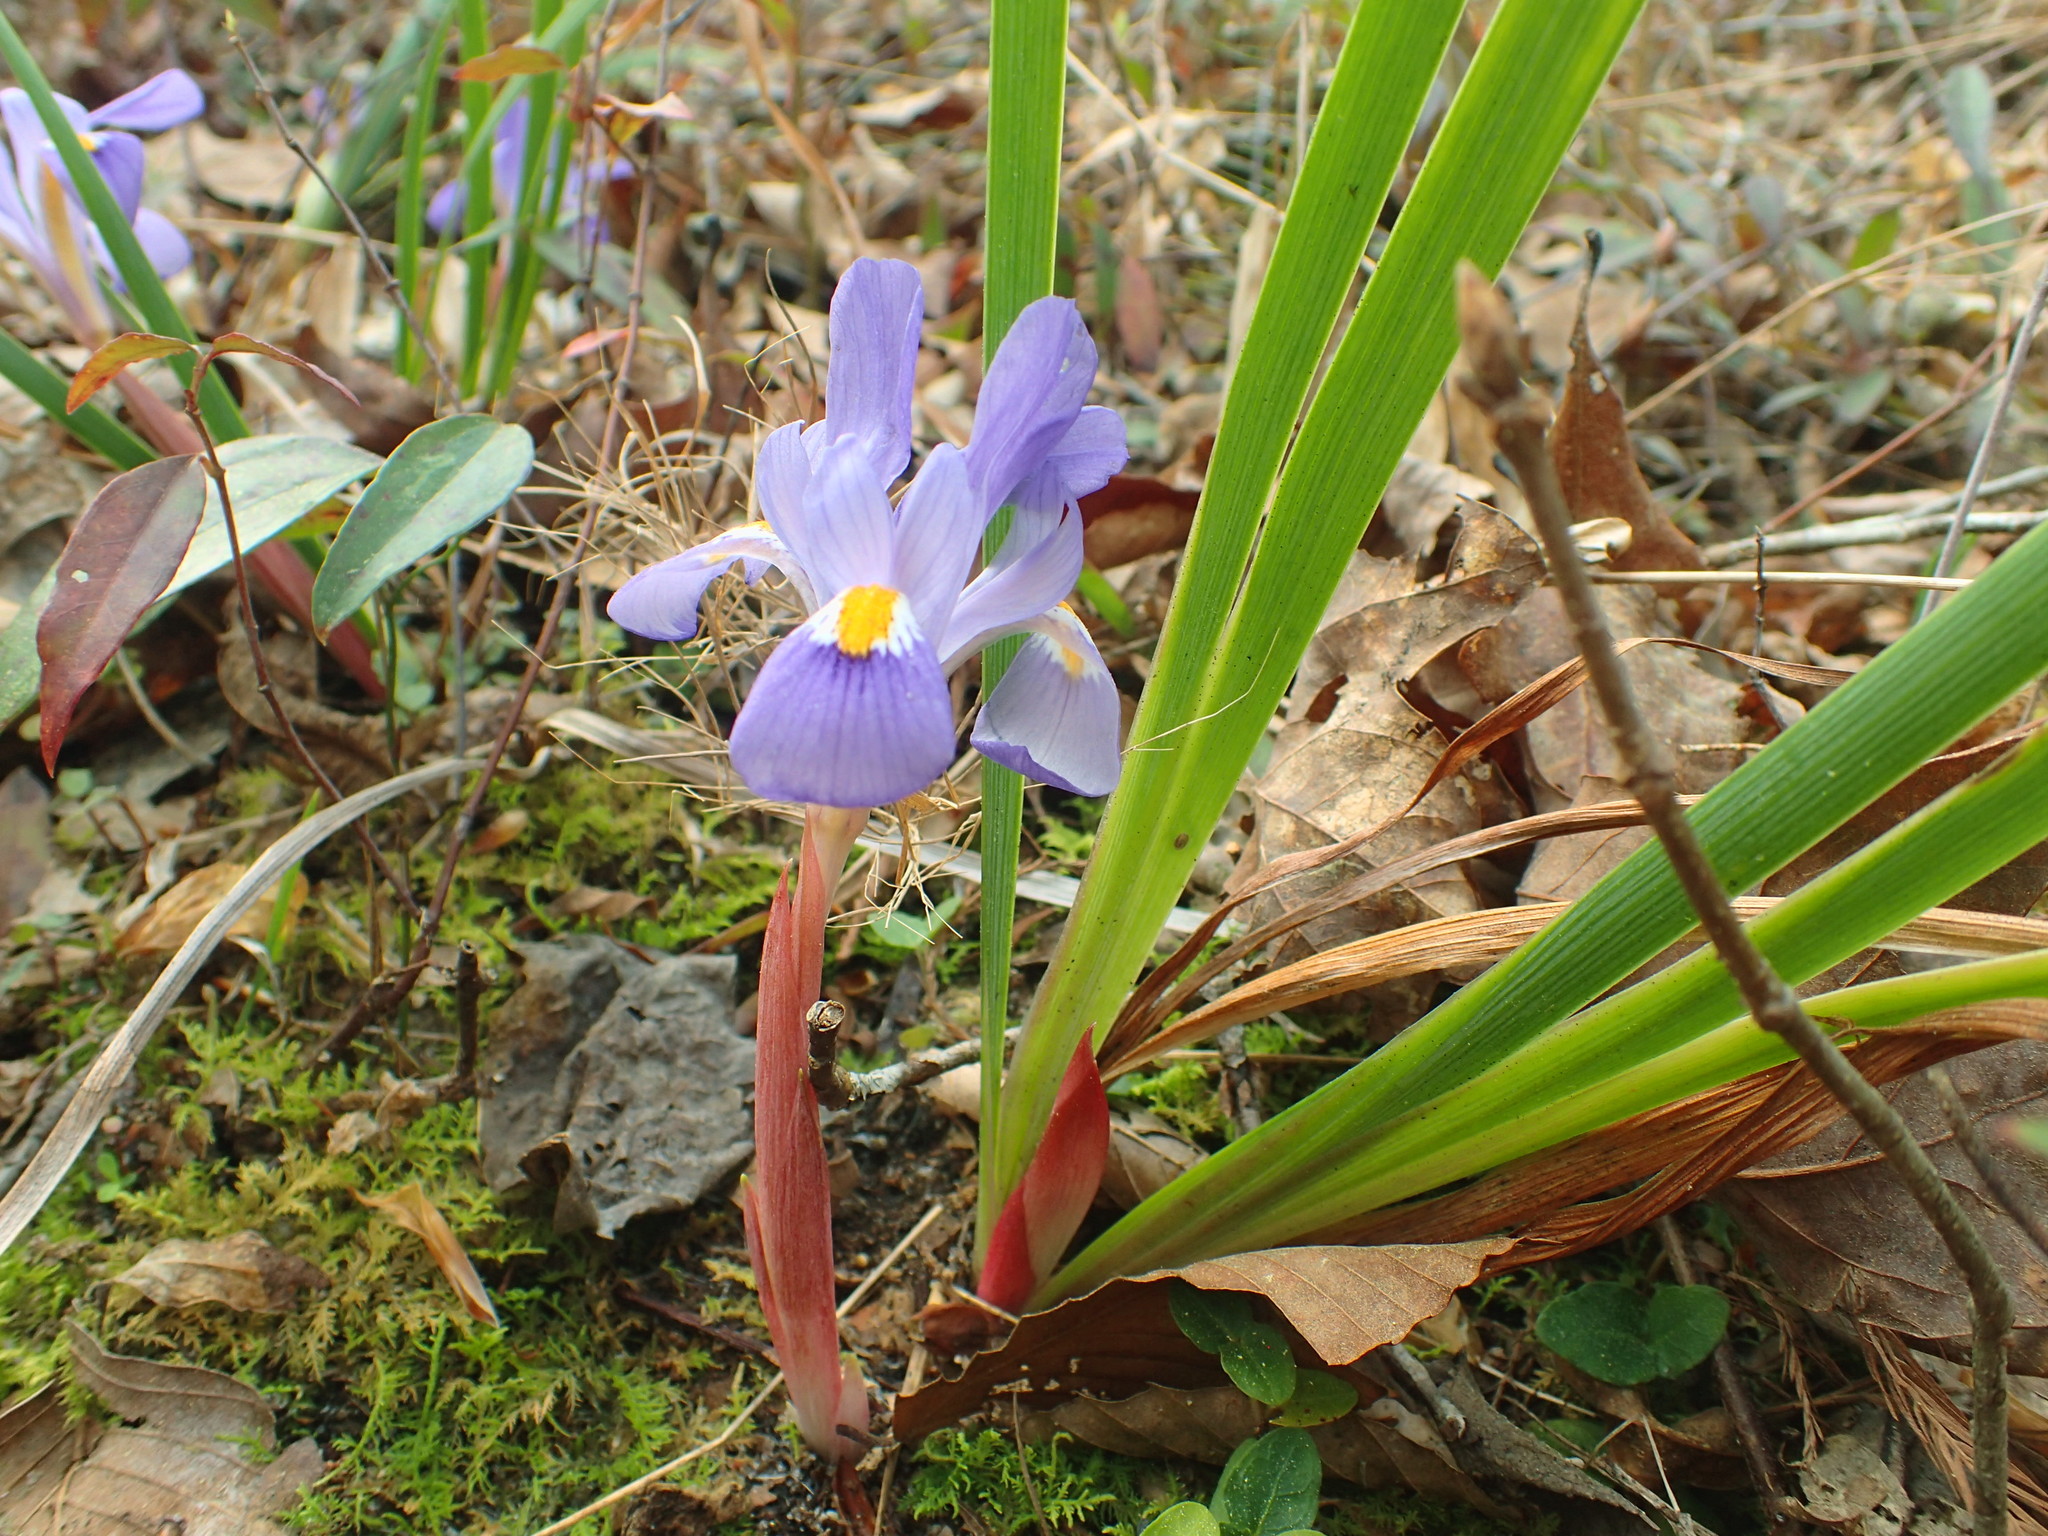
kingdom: Plantae
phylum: Tracheophyta
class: Liliopsida
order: Asparagales
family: Iridaceae
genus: Iris
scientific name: Iris verna
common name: Dwarf iris
